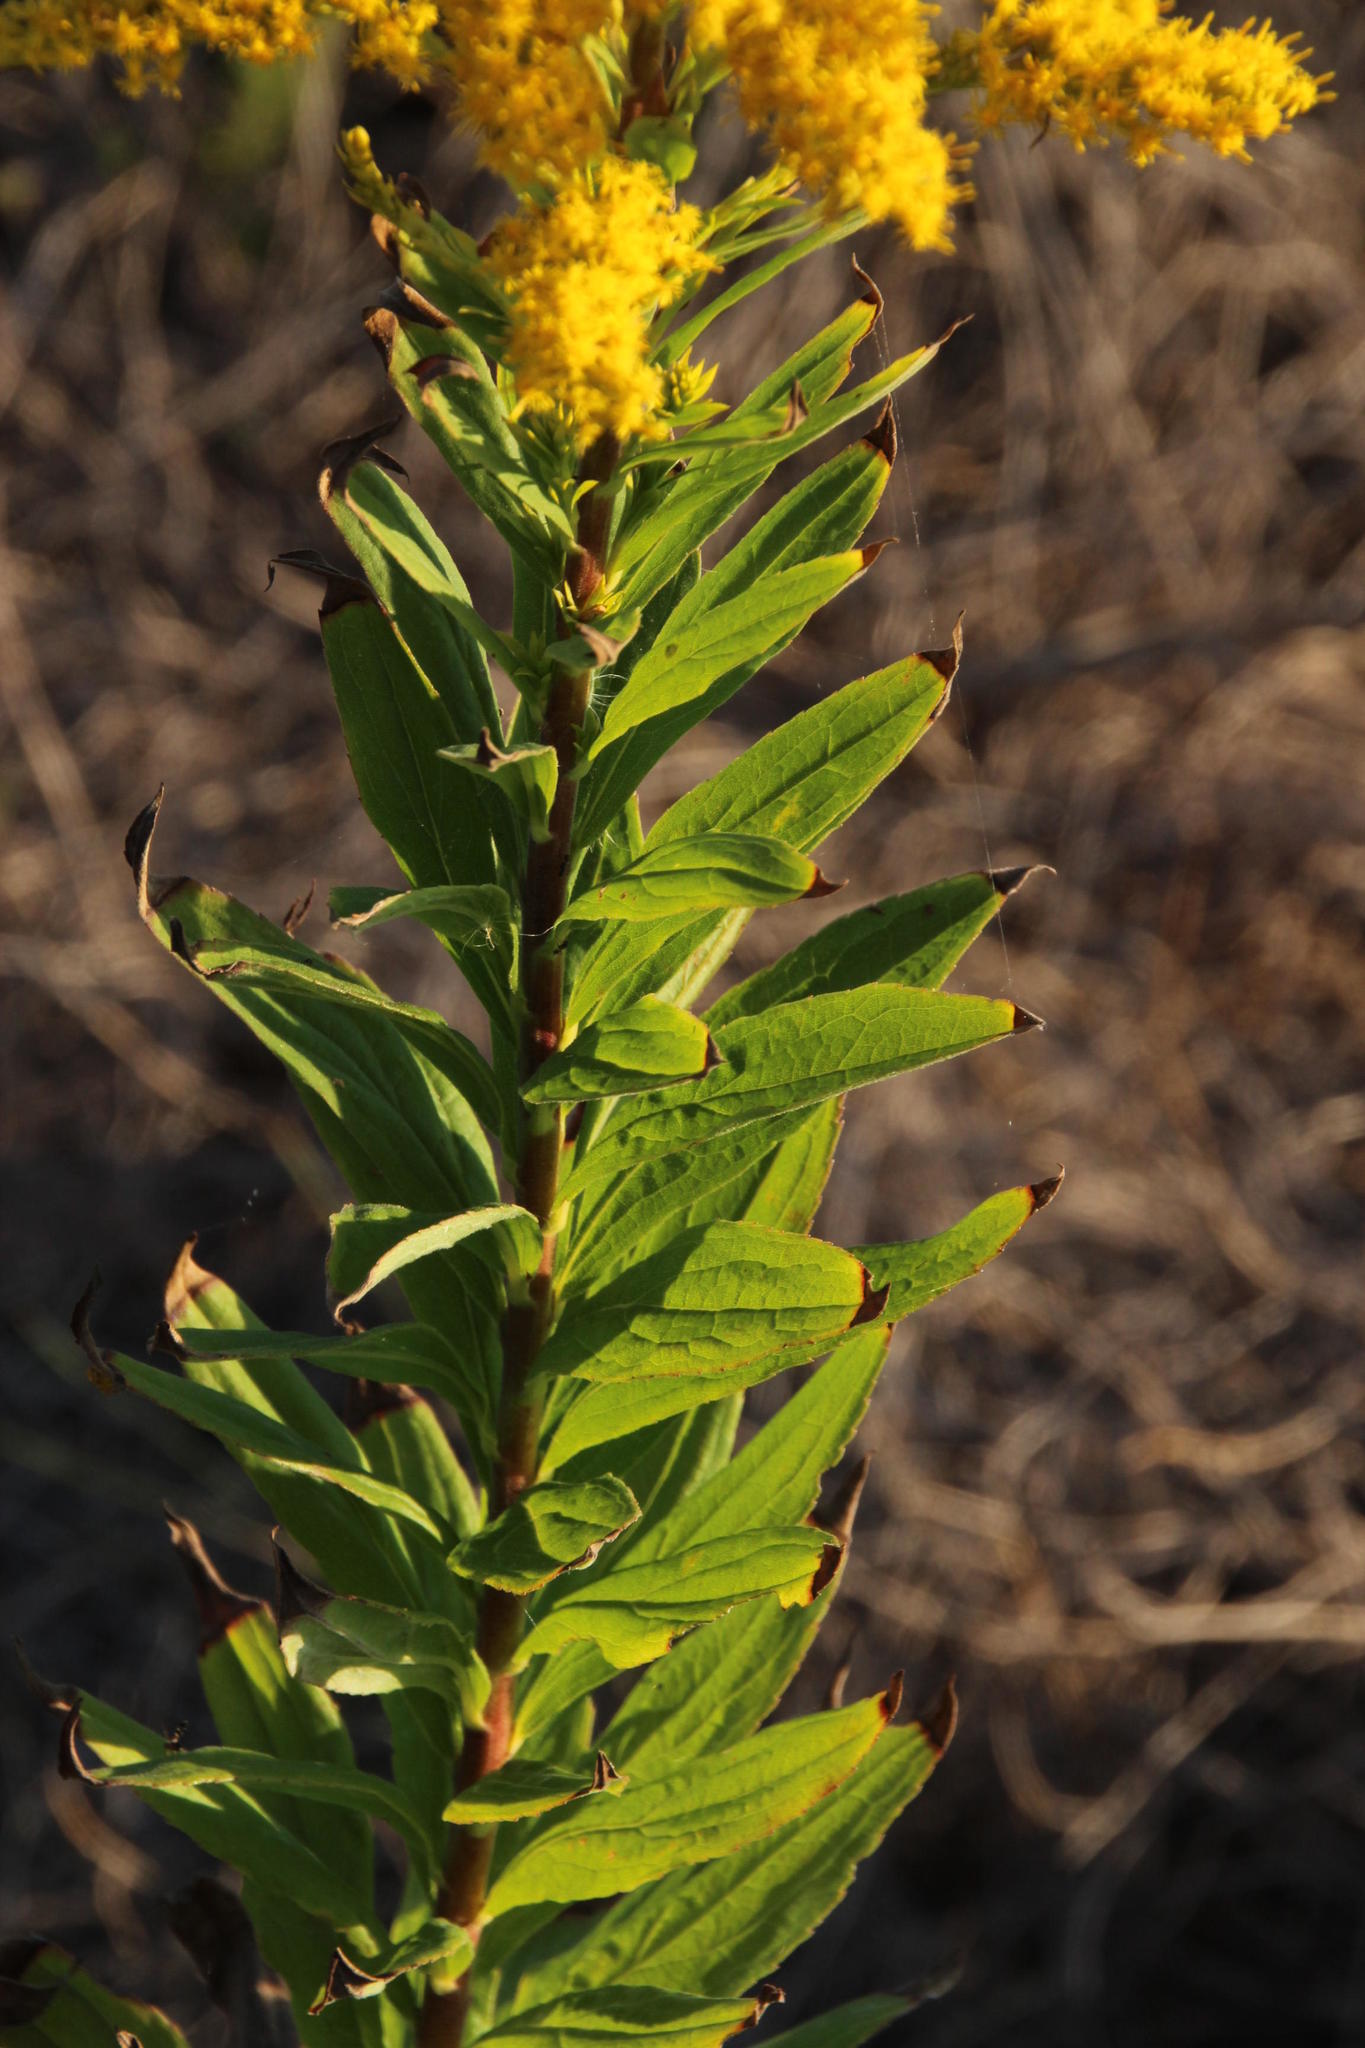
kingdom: Plantae
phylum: Tracheophyta
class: Magnoliopsida
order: Asterales
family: Asteraceae
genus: Solidago
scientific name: Solidago altissima
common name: Late goldenrod
